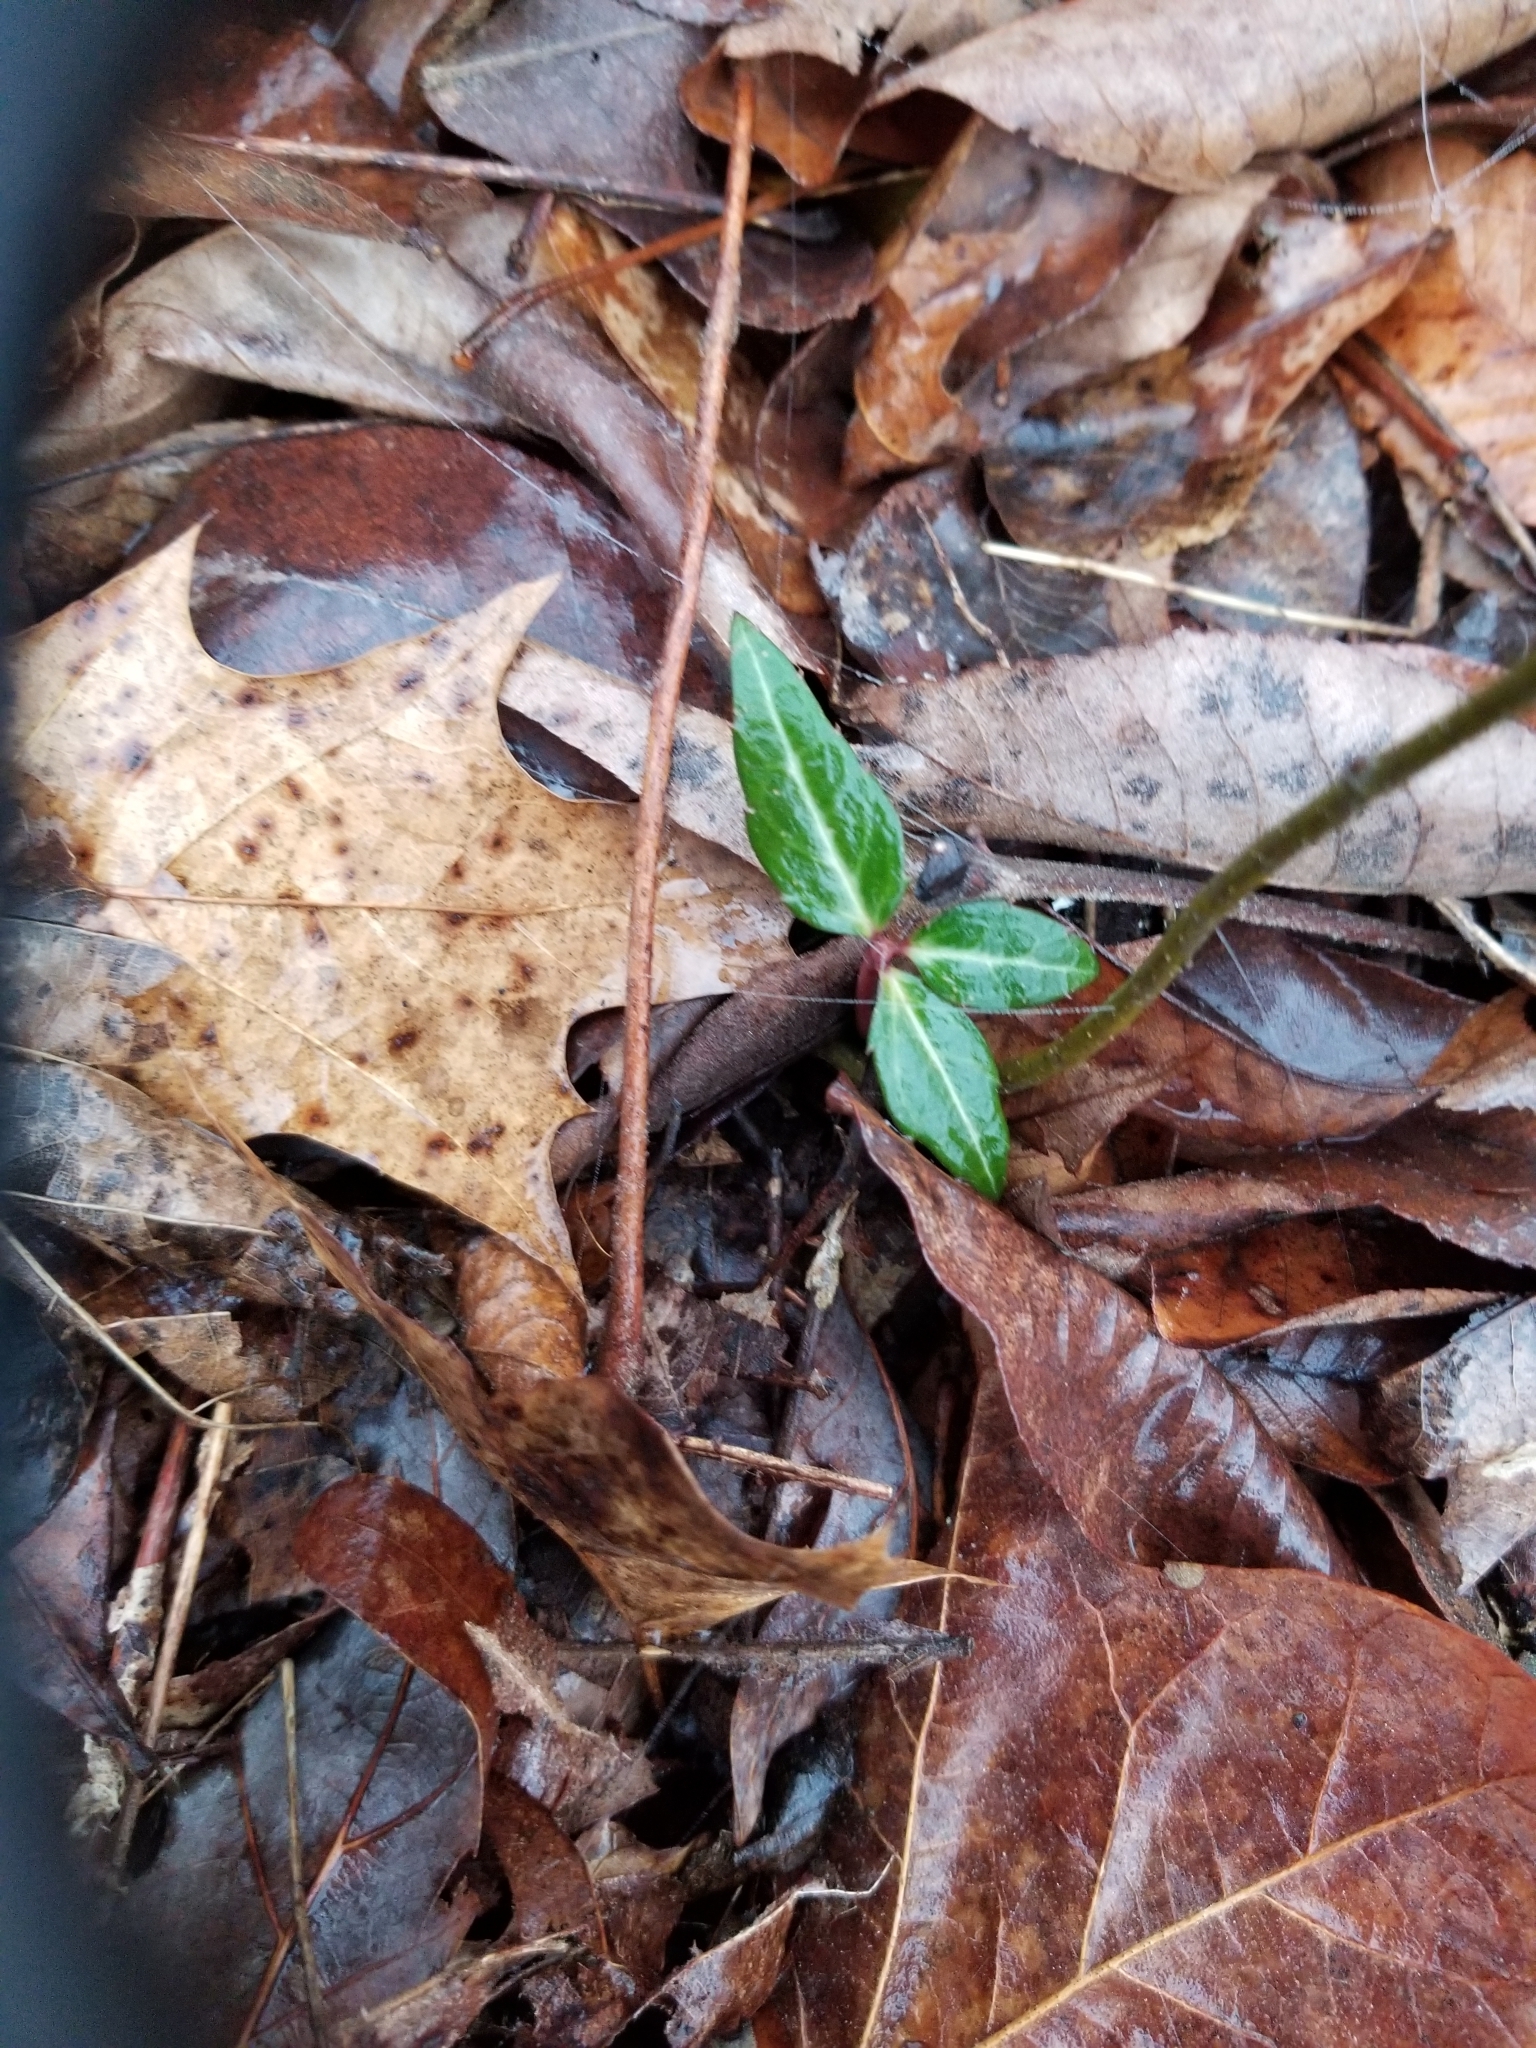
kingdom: Plantae
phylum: Tracheophyta
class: Magnoliopsida
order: Ericales
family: Ericaceae
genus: Chimaphila
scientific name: Chimaphila maculata
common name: Spotted pipsissewa
